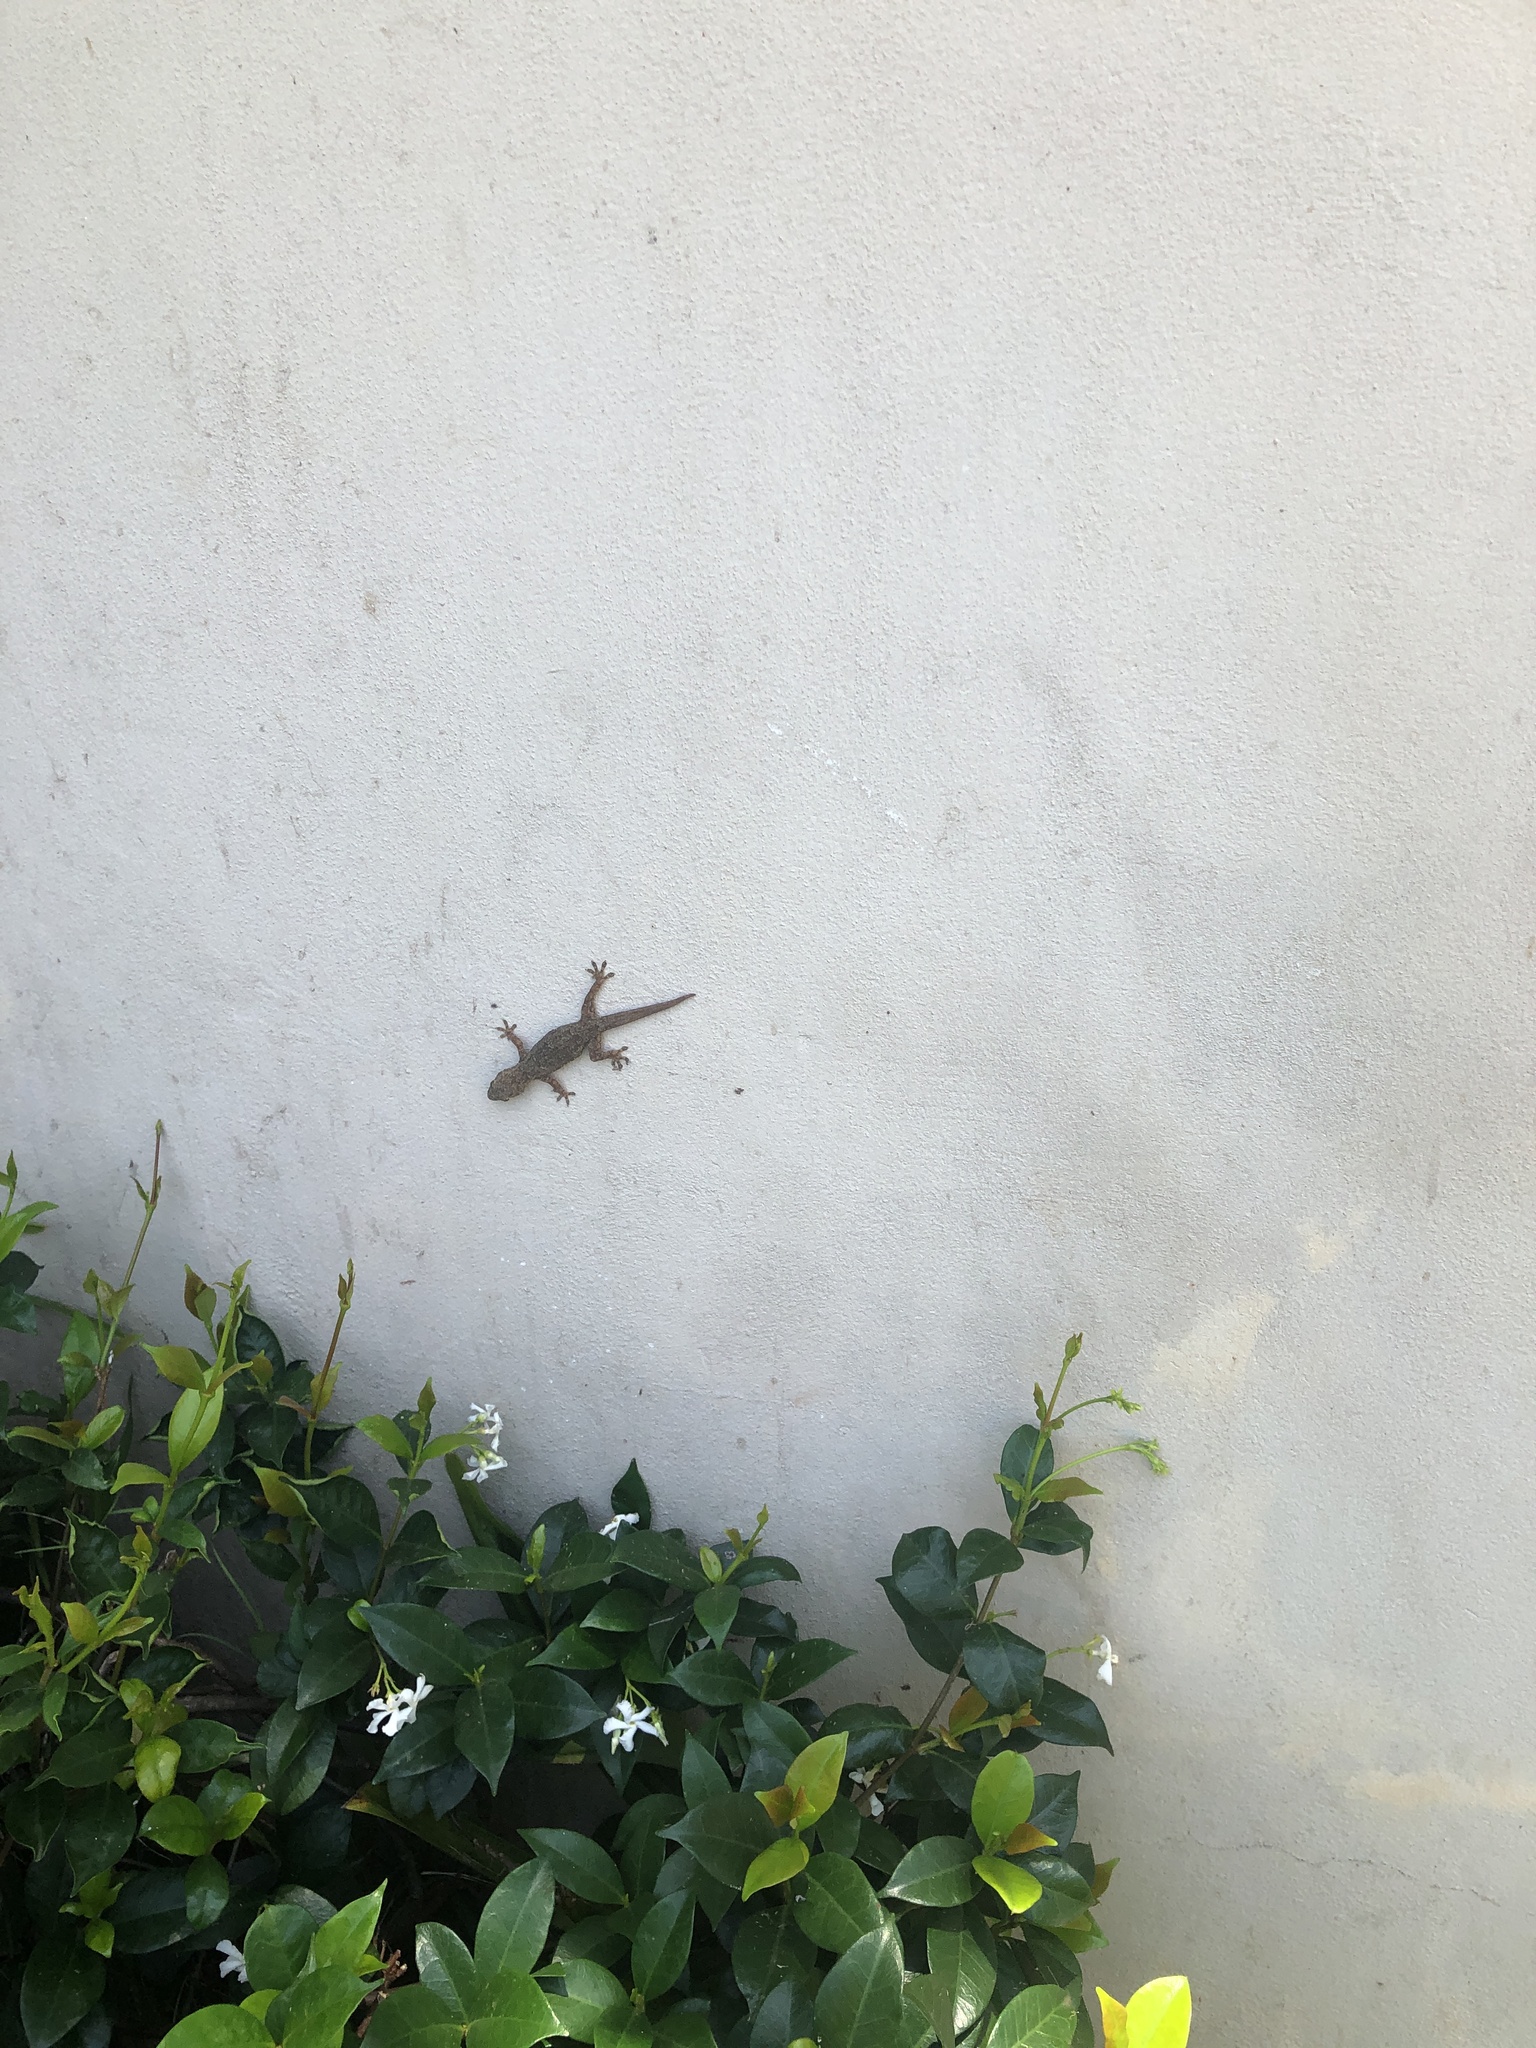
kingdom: Animalia
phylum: Chordata
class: Squamata
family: Gekkonidae
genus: Lygodactylus
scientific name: Lygodactylus capensis
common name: Cape dwarf gecko
